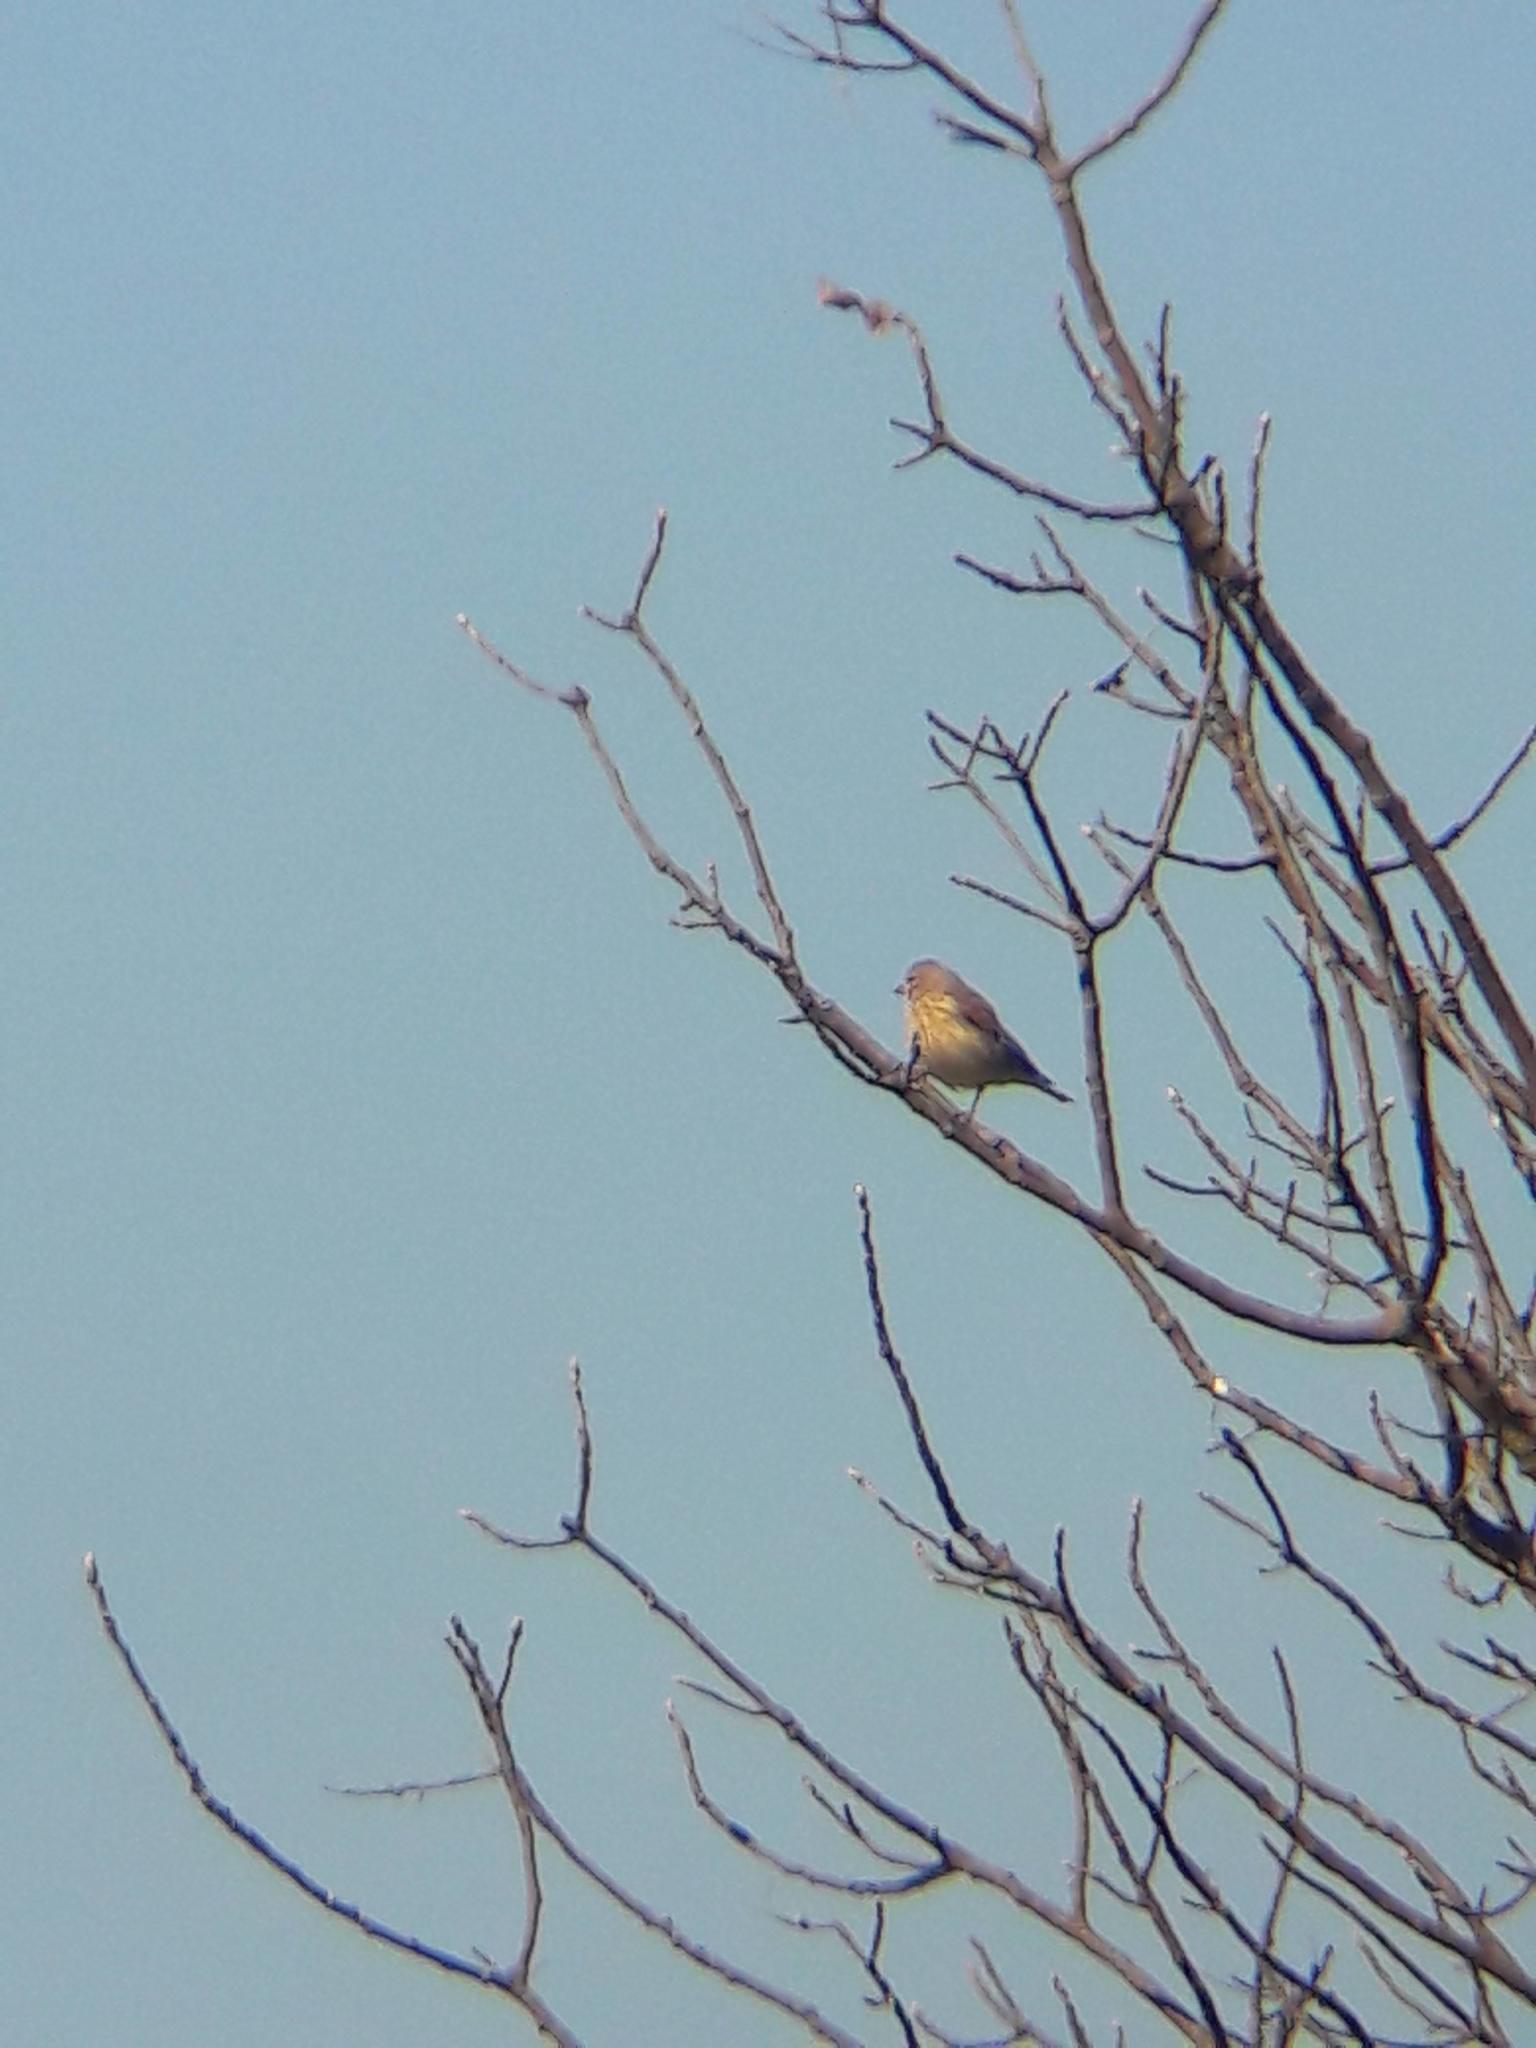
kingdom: Animalia
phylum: Chordata
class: Aves
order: Passeriformes
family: Fringillidae
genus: Linaria
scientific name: Linaria cannabina
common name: Common linnet
